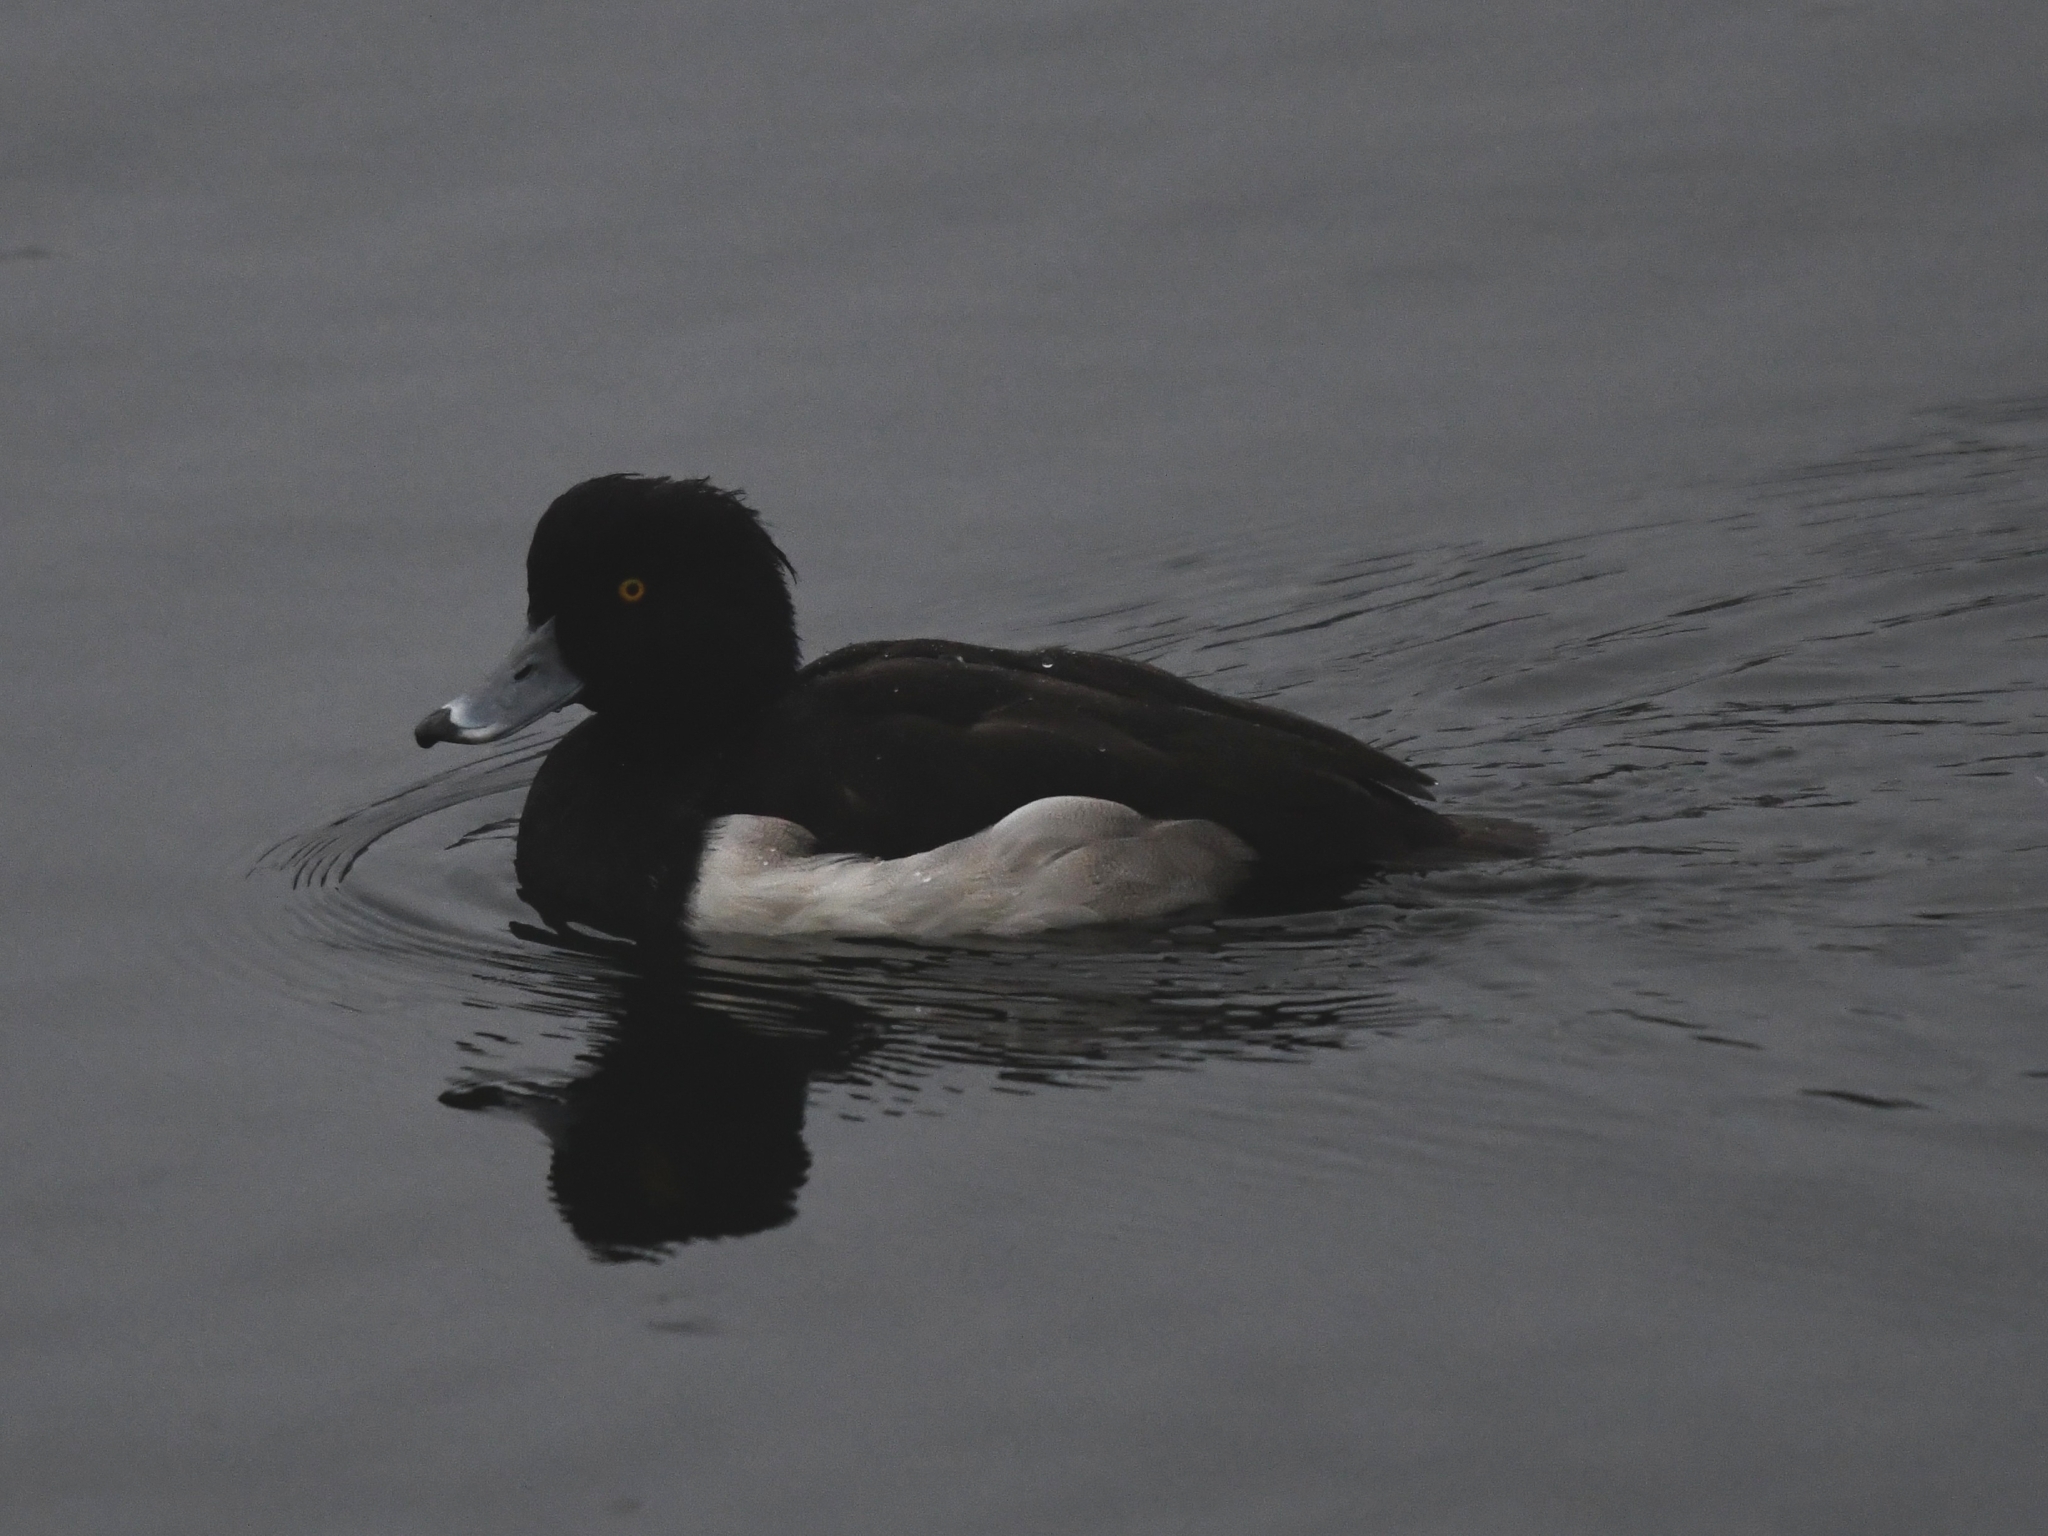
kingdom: Animalia
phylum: Chordata
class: Aves
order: Anseriformes
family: Anatidae
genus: Aythya
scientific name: Aythya fuligula
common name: Tufted duck
